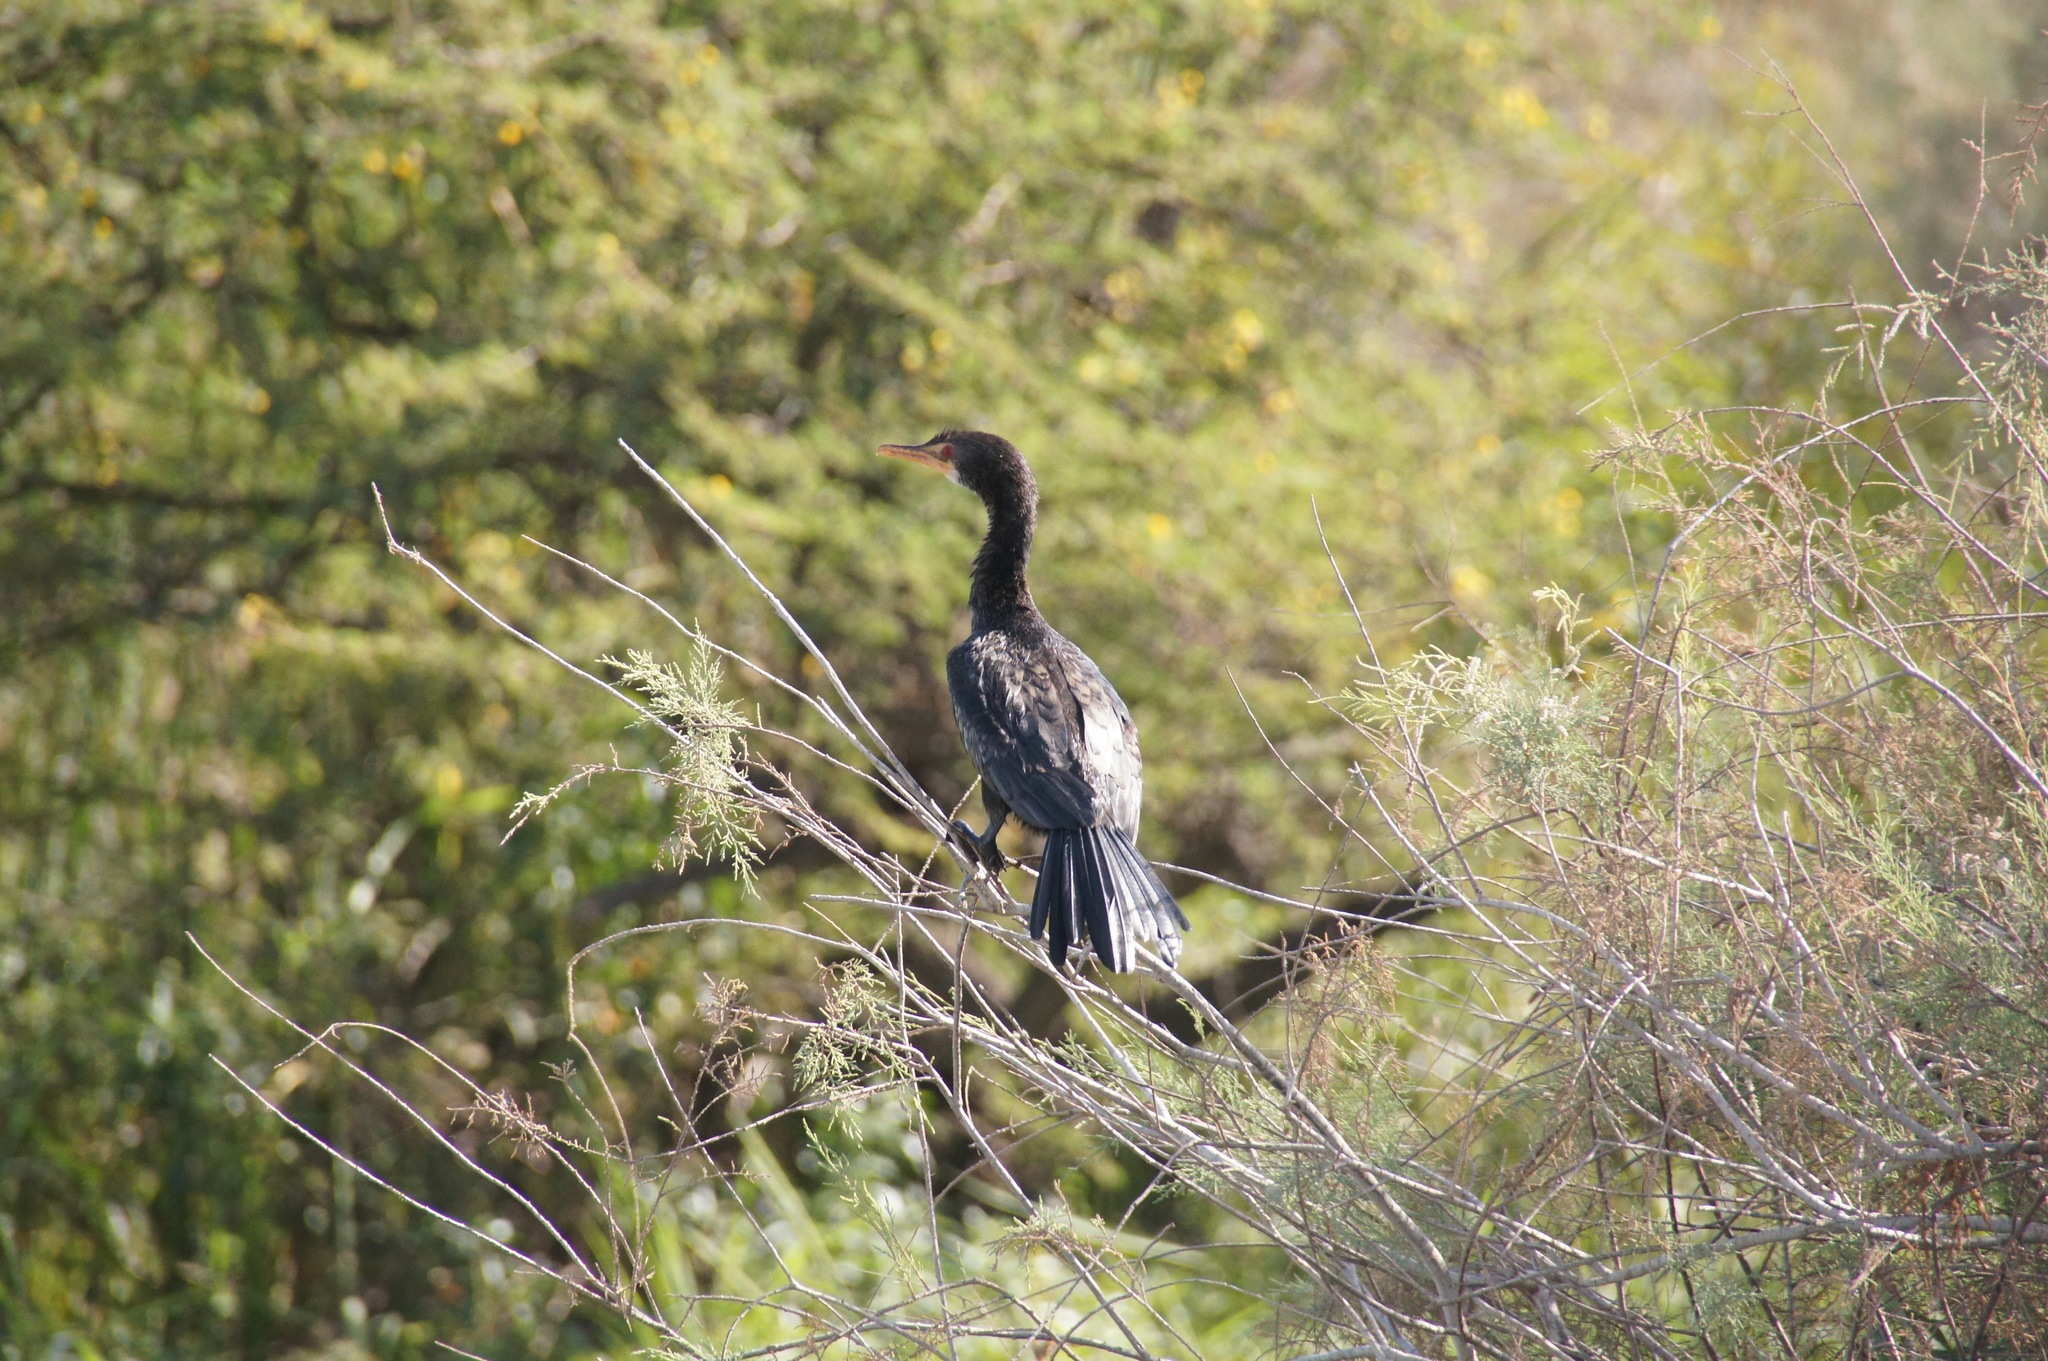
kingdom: Animalia
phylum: Chordata
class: Aves
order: Suliformes
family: Phalacrocoracidae
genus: Microcarbo
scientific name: Microcarbo africanus
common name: Long-tailed cormorant
